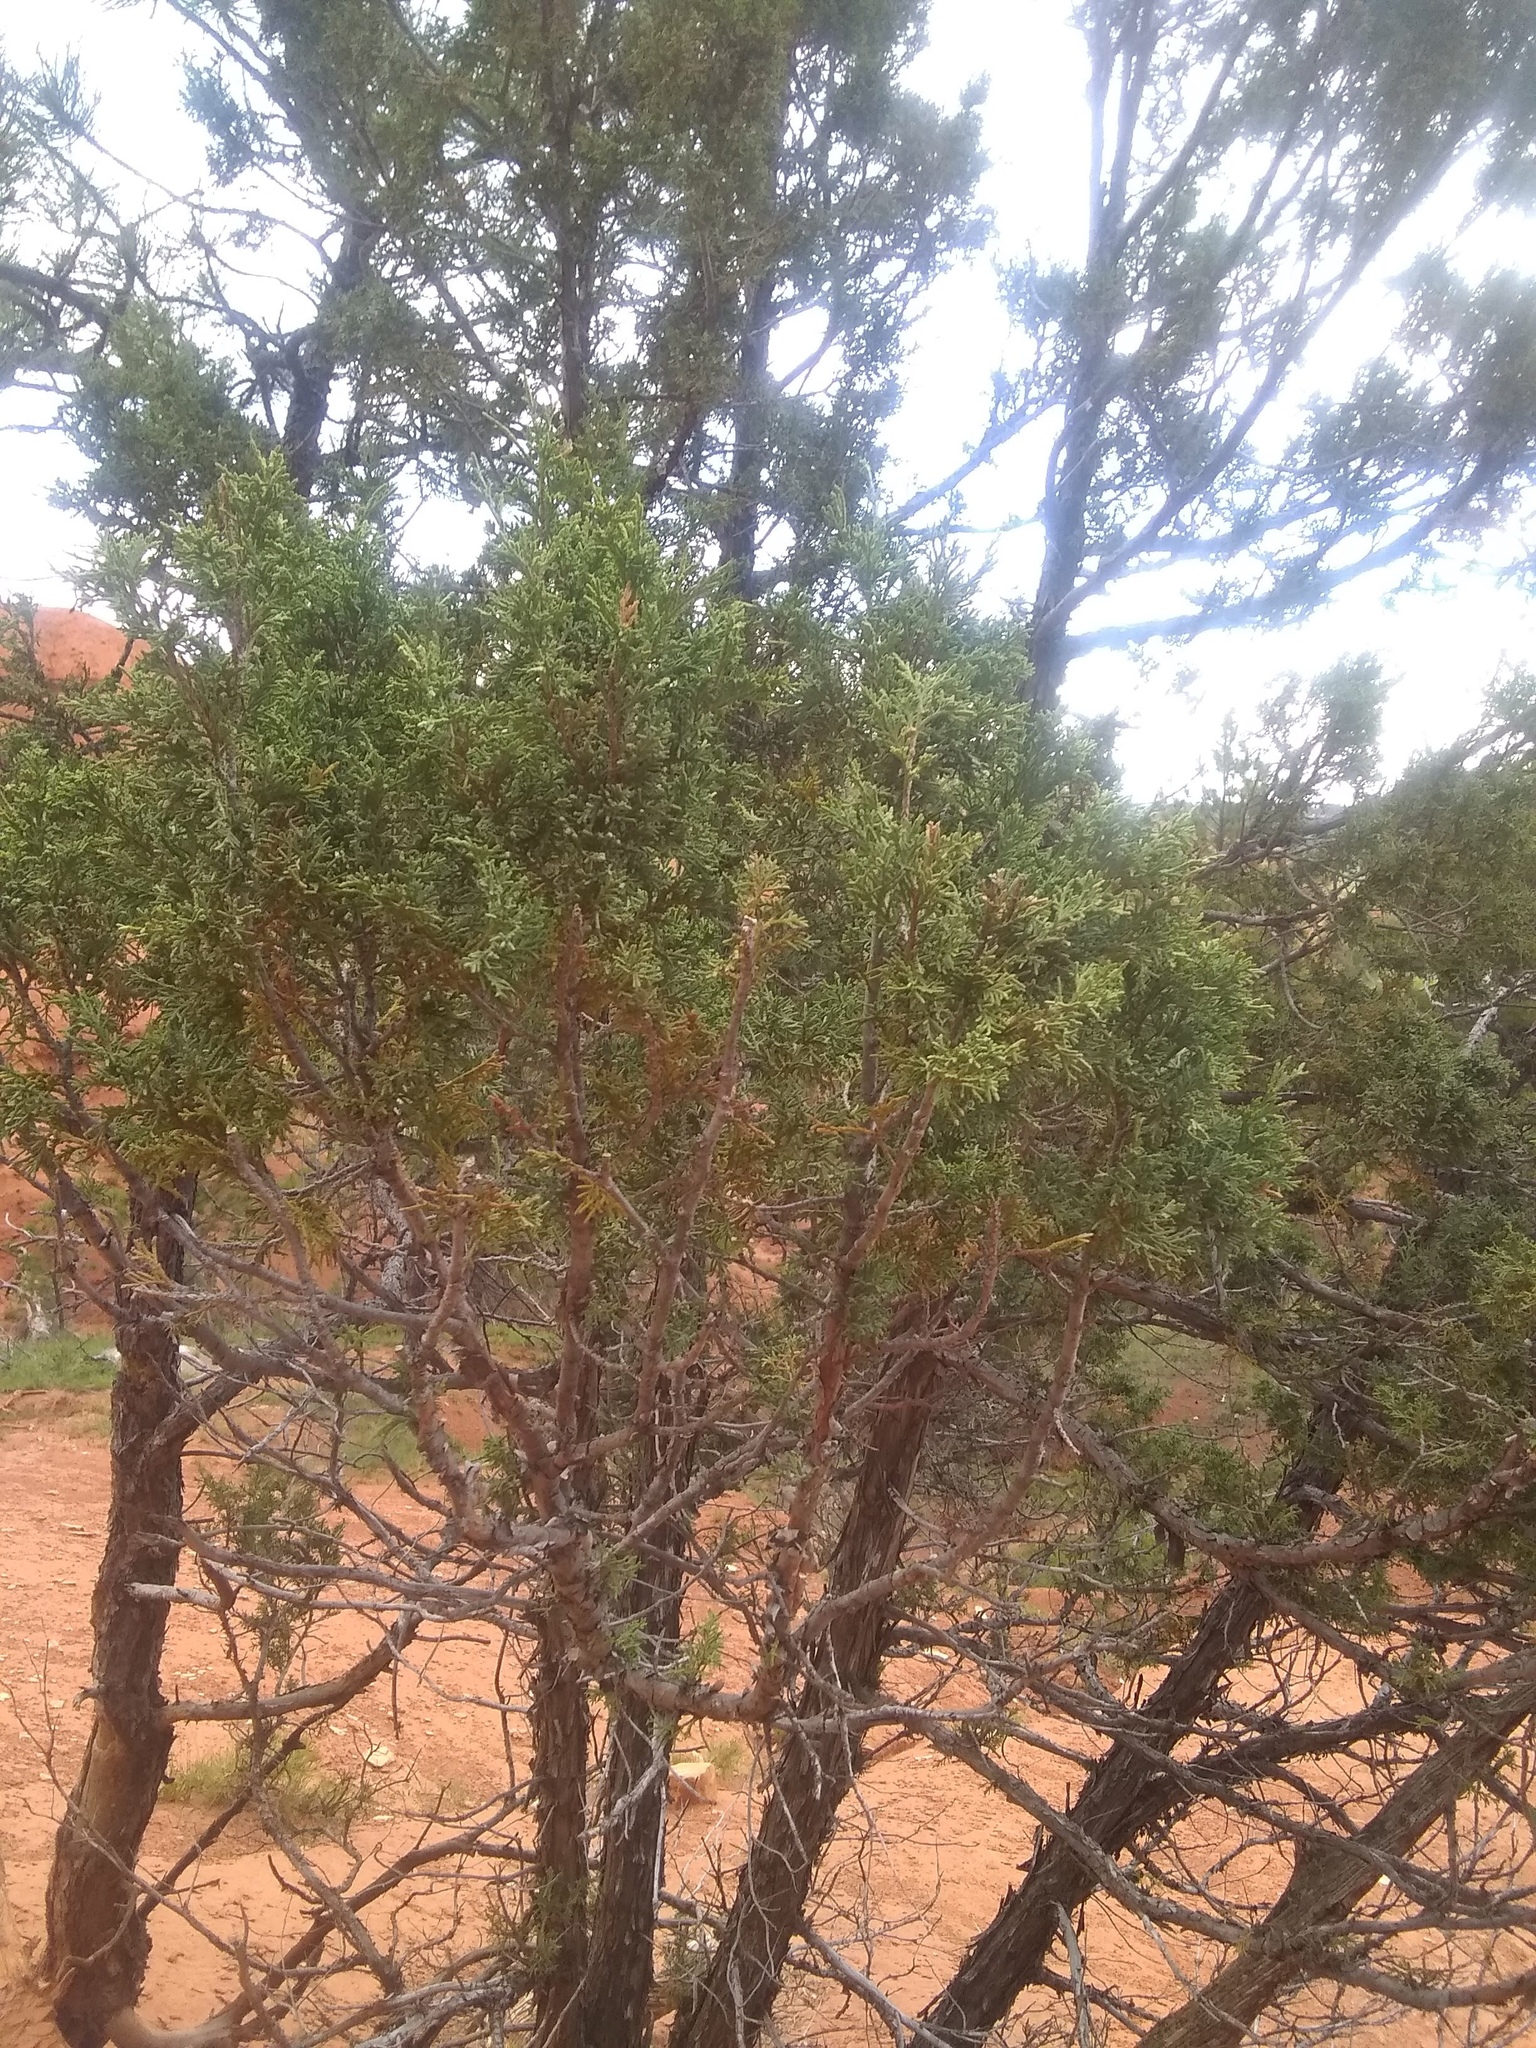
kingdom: Plantae
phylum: Tracheophyta
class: Pinopsida
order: Pinales
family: Cupressaceae
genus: Juniperus
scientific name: Juniperus scopulorum
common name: Rocky mountain juniper
